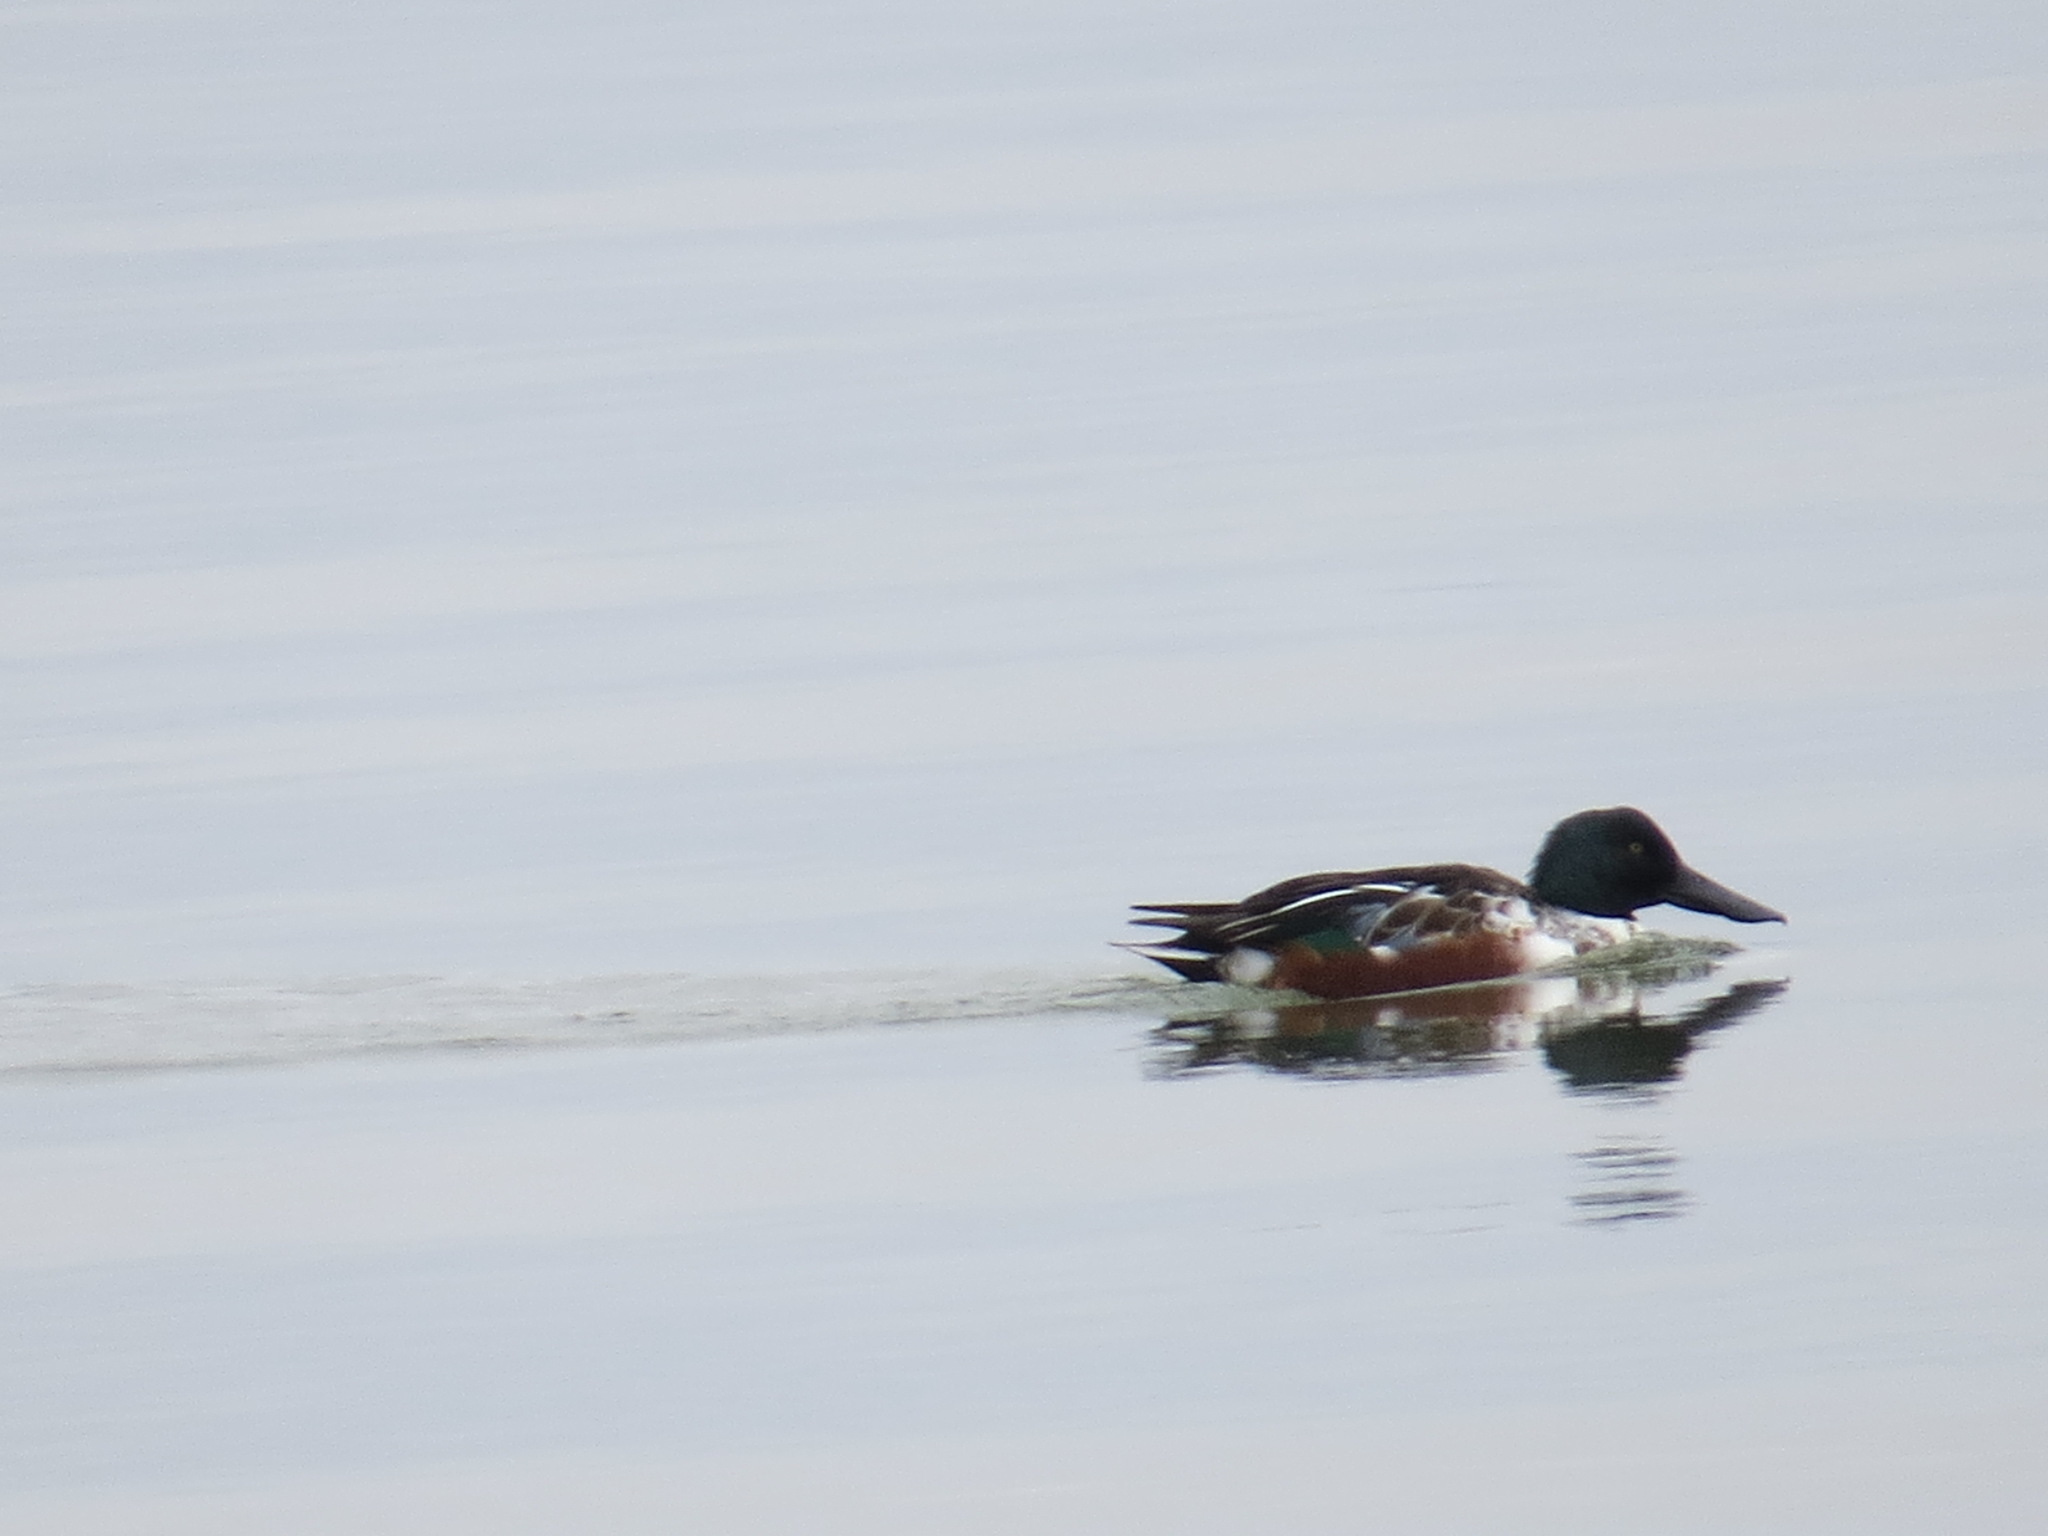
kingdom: Animalia
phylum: Chordata
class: Aves
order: Anseriformes
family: Anatidae
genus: Spatula
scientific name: Spatula clypeata
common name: Northern shoveler
